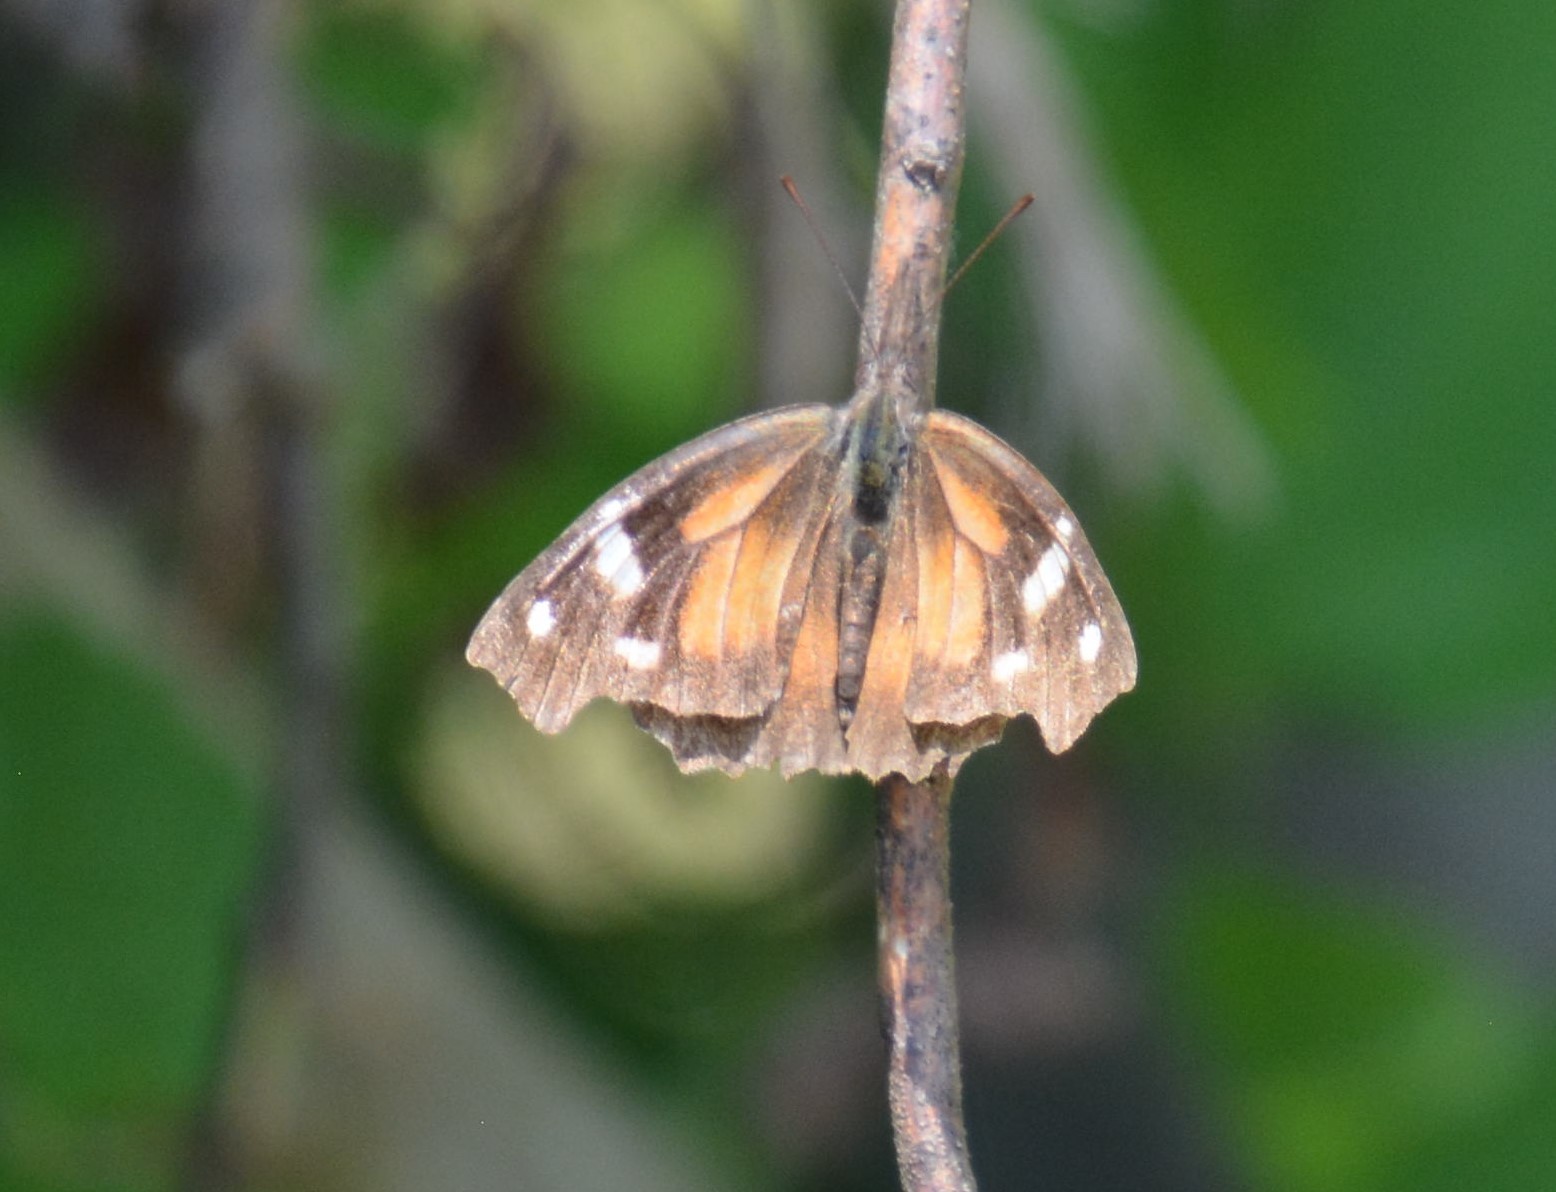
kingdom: Animalia
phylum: Arthropoda
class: Insecta
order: Lepidoptera
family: Nymphalidae
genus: Libytheana
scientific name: Libytheana carinenta
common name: American snout
